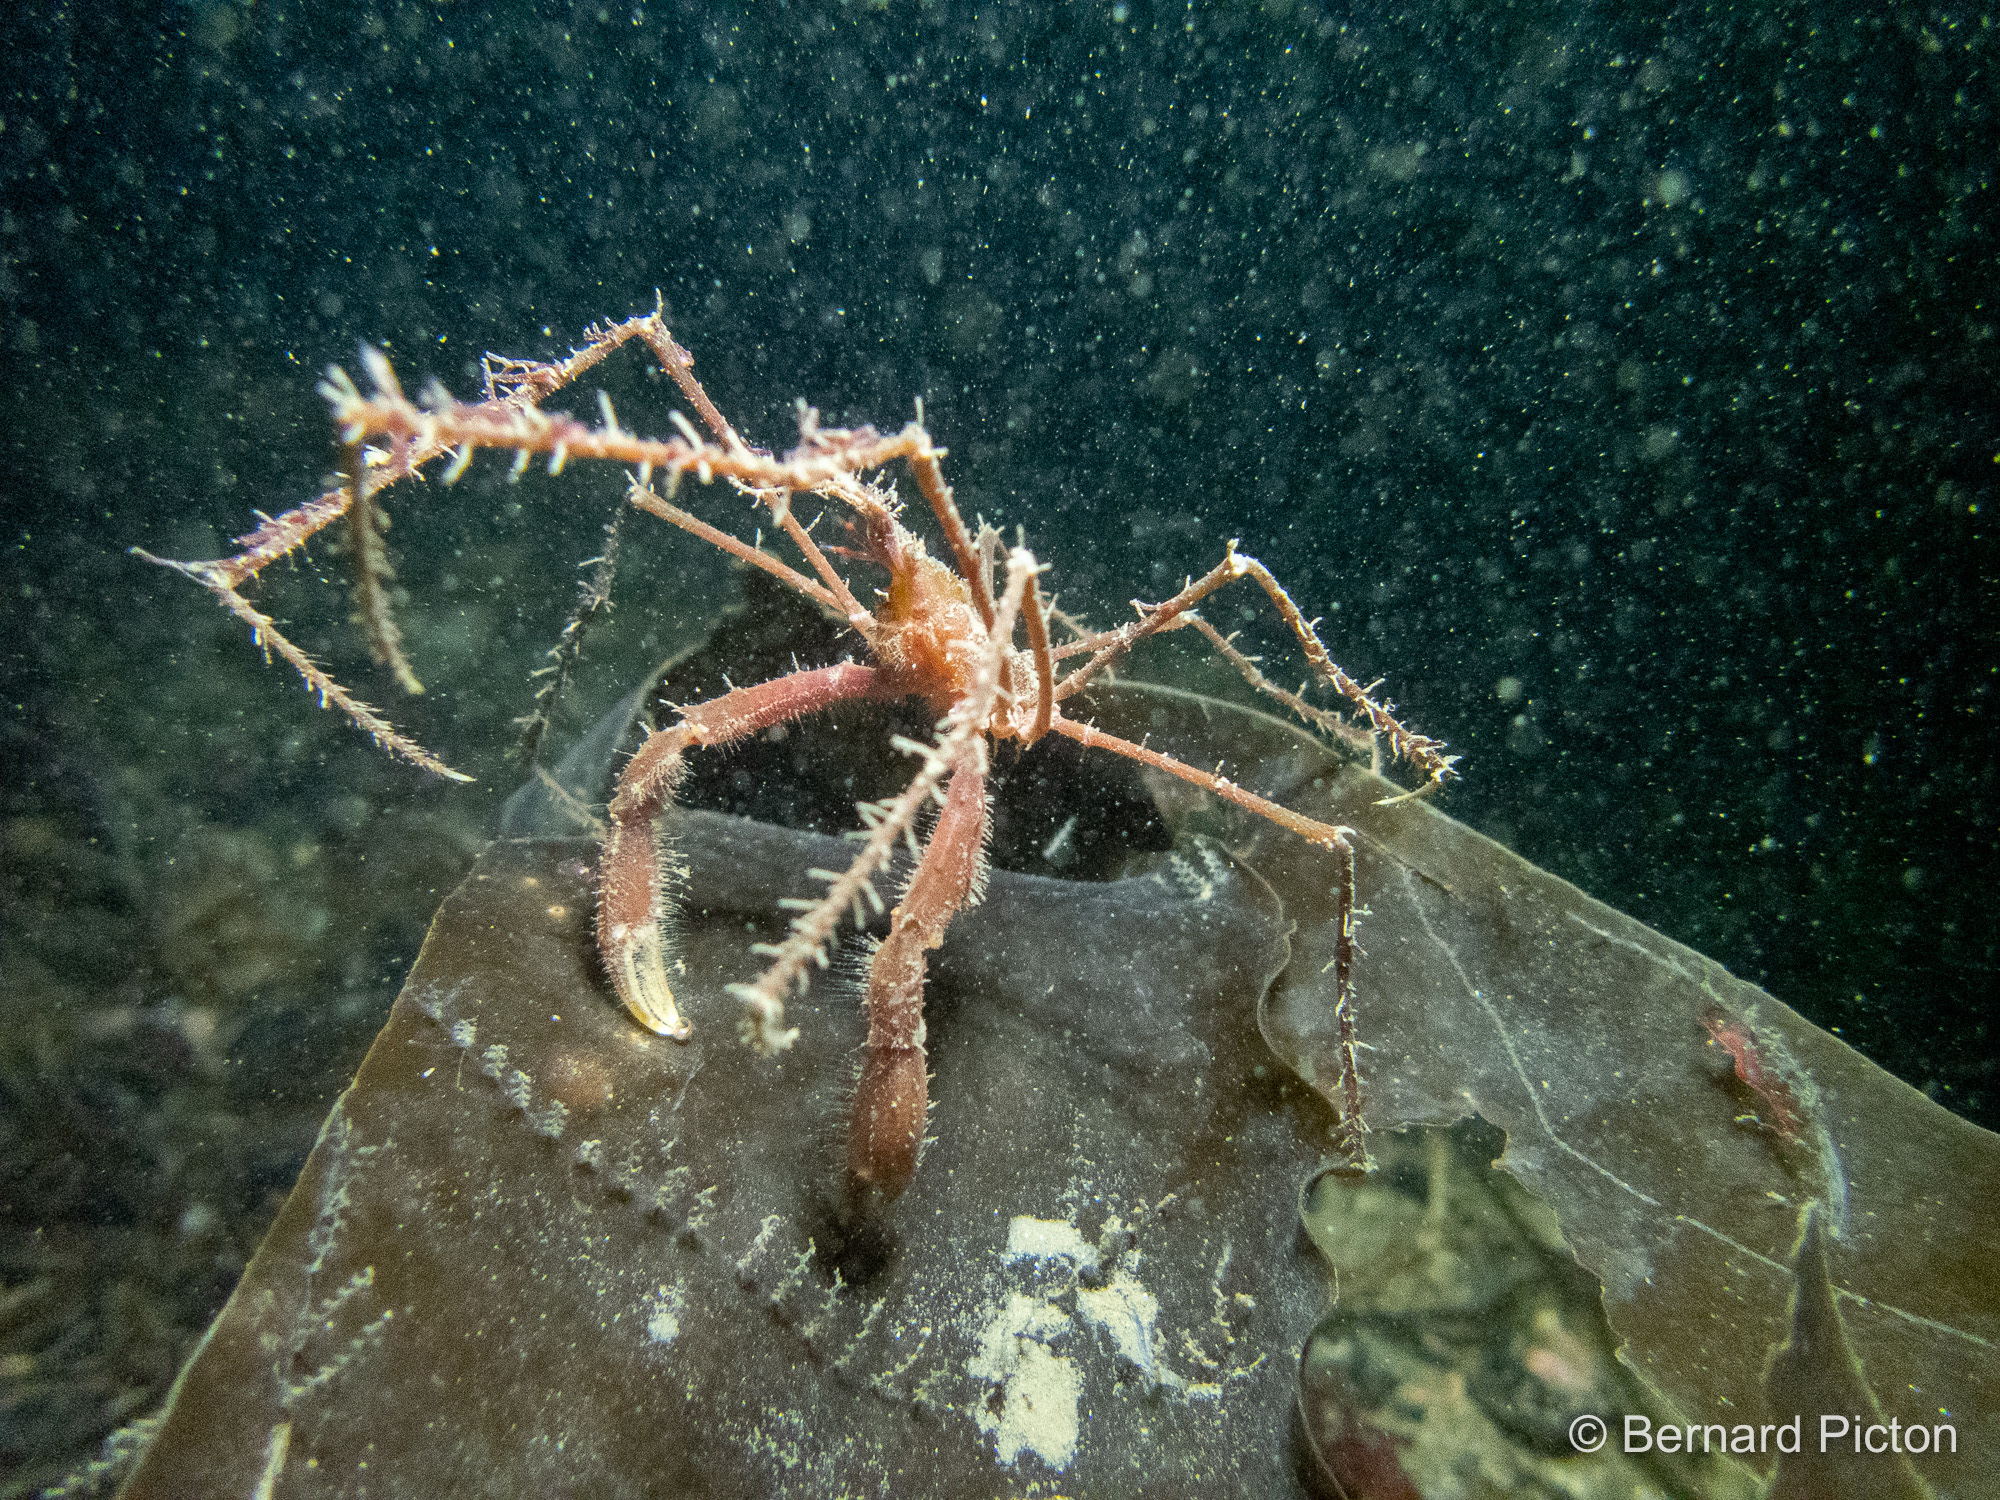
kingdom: Animalia
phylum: Arthropoda
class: Malacostraca
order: Decapoda
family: Inachidae
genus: Macropodia
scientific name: Macropodia rostrata
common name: Long-legged spider crab
